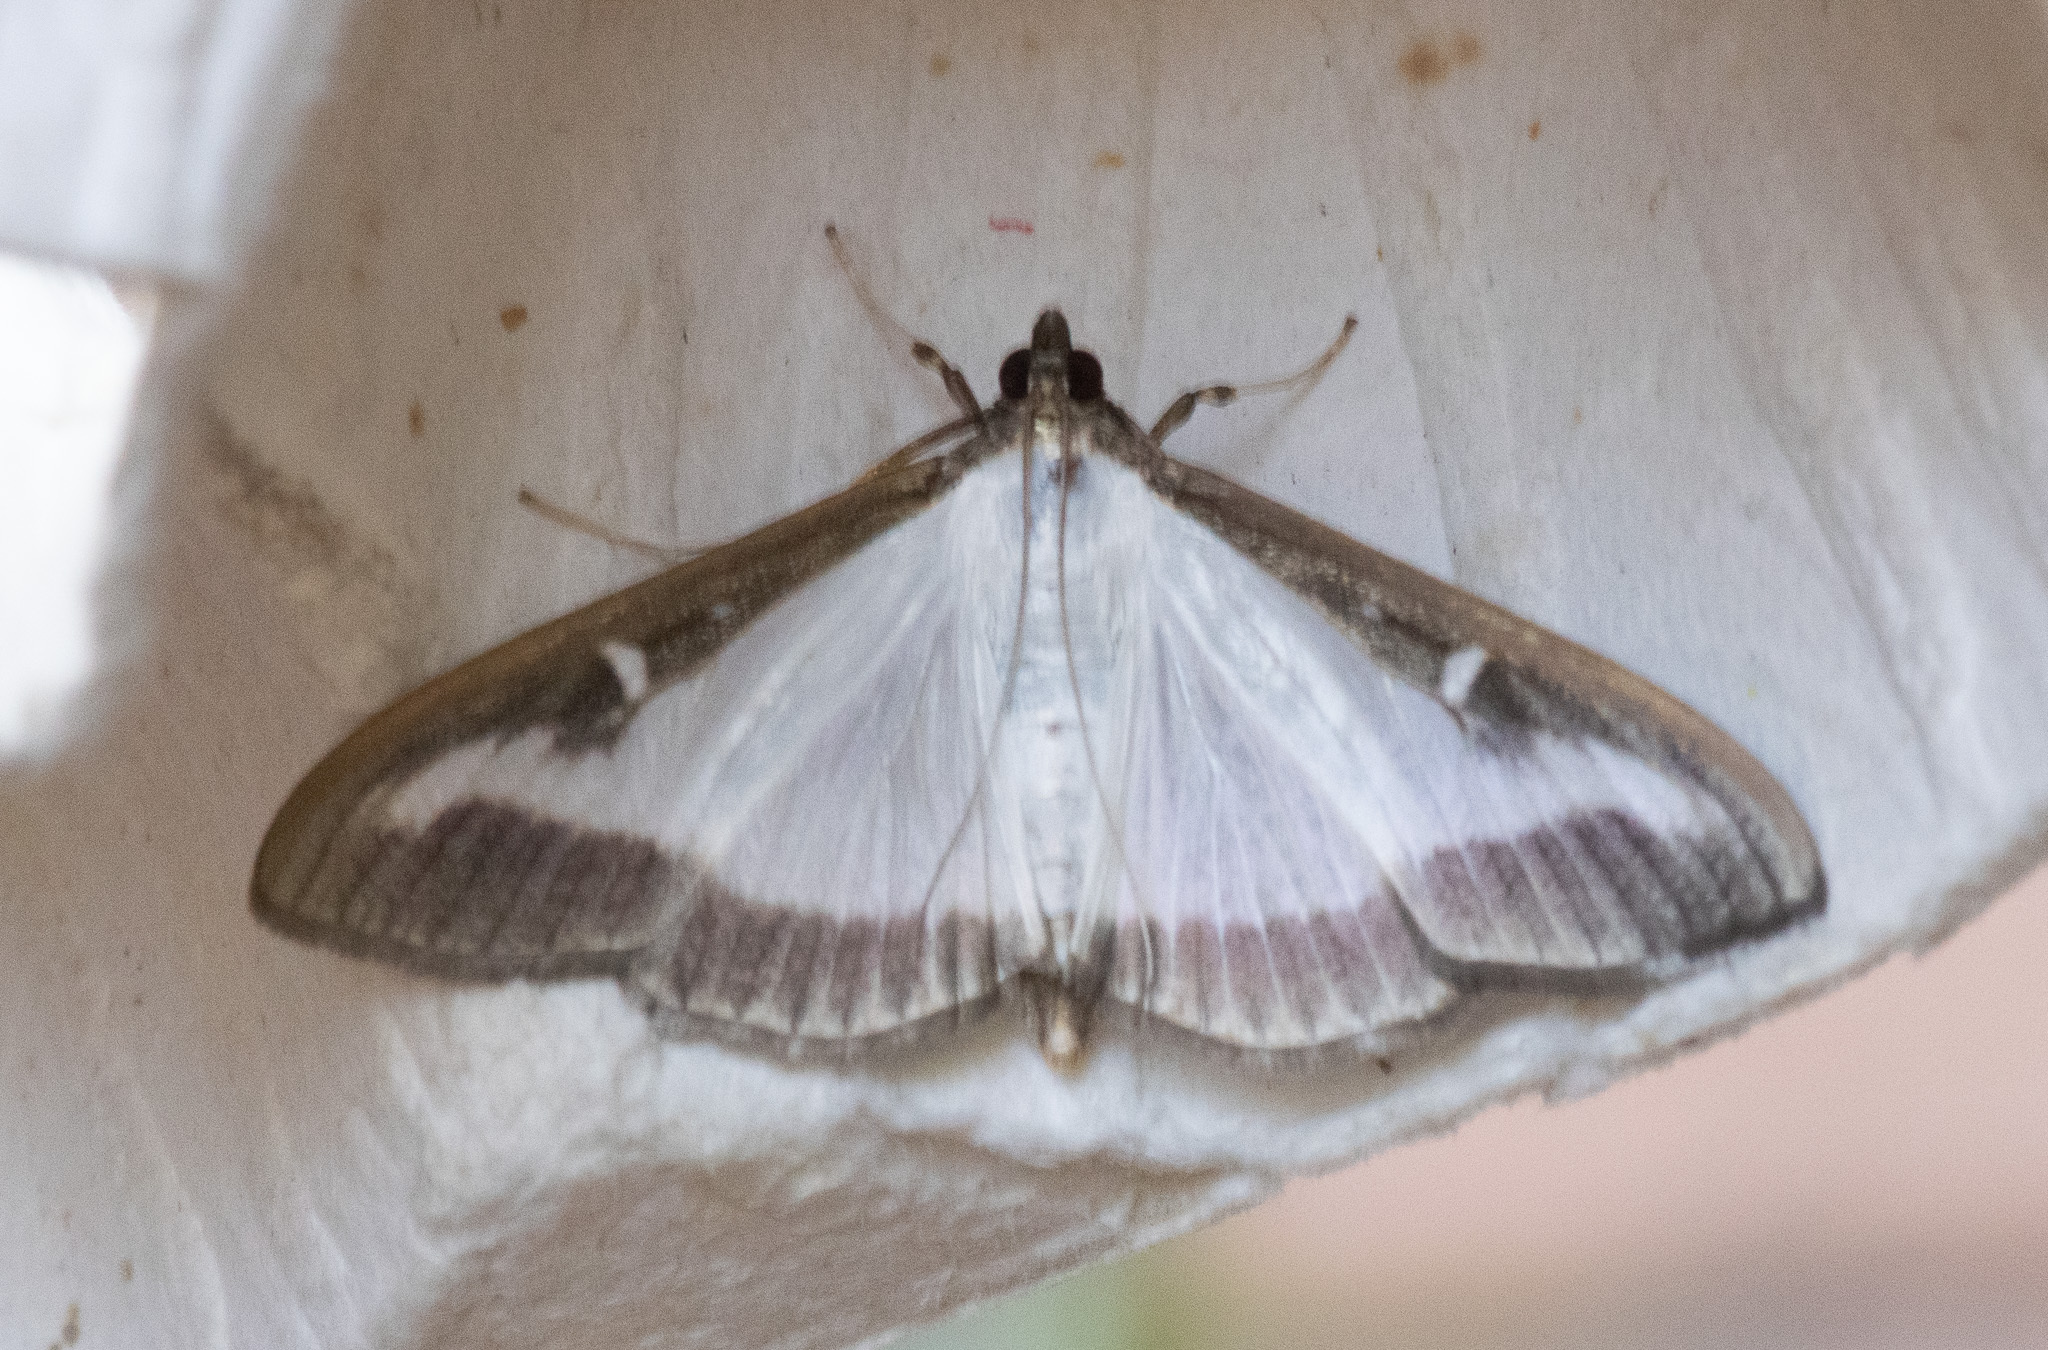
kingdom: Animalia
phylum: Arthropoda
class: Insecta
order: Lepidoptera
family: Crambidae
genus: Cydalima
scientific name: Cydalima perspectalis
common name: Box tree moth
